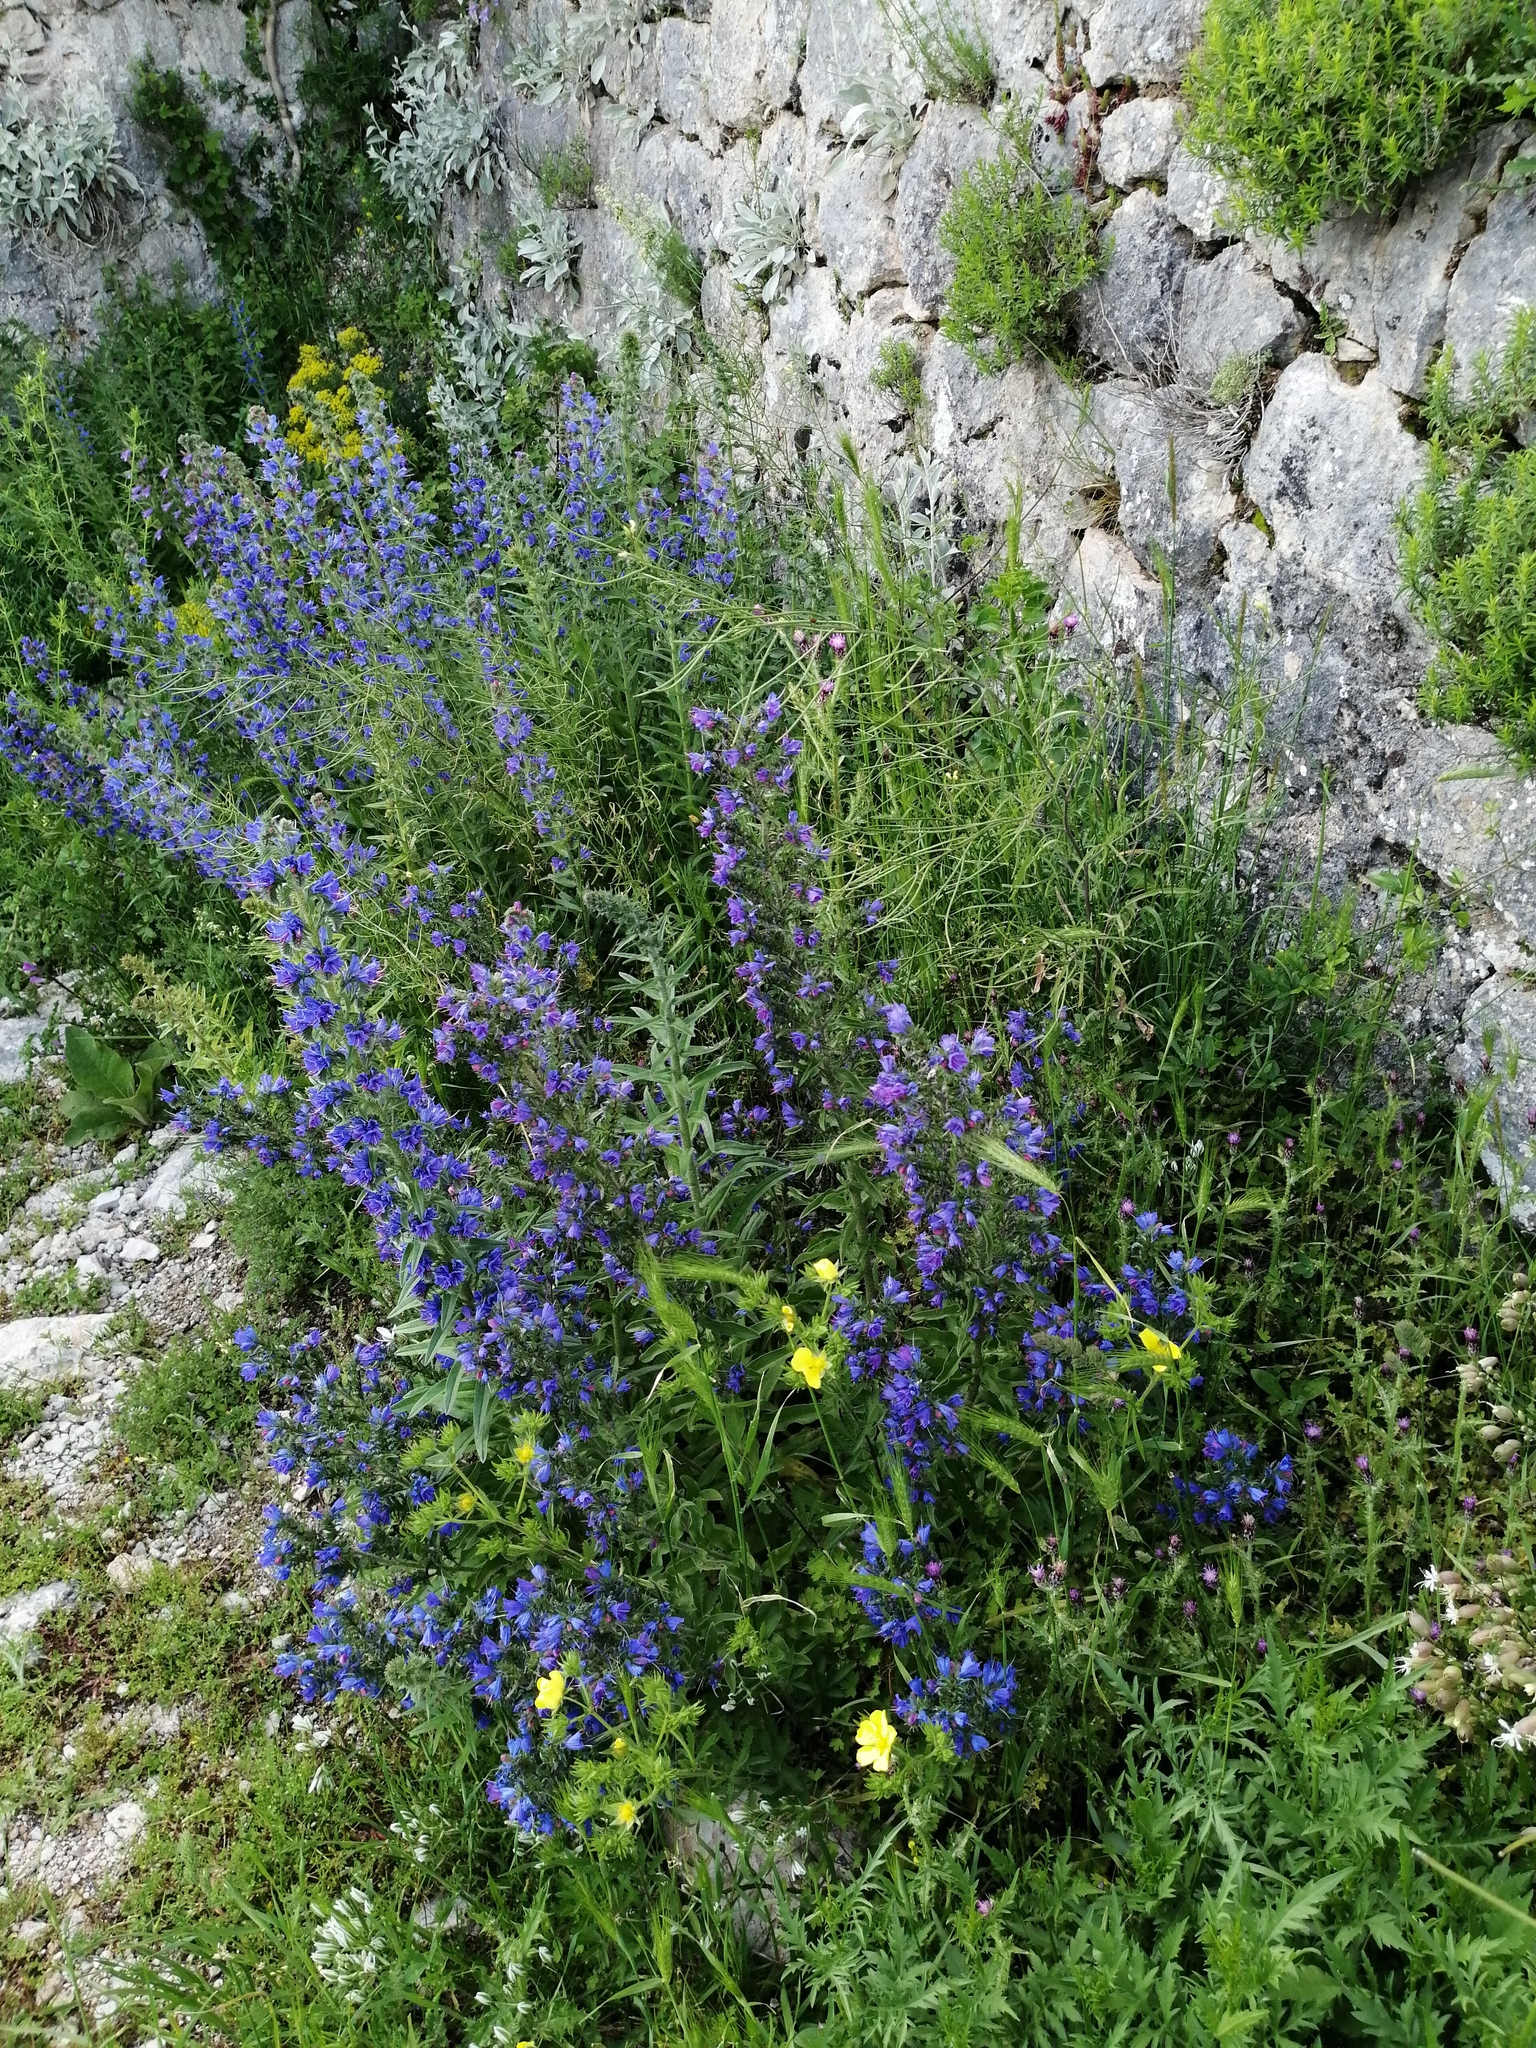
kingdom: Plantae
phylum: Tracheophyta
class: Magnoliopsida
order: Boraginales
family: Boraginaceae
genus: Echium
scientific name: Echium vulgare
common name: Common viper's bugloss
